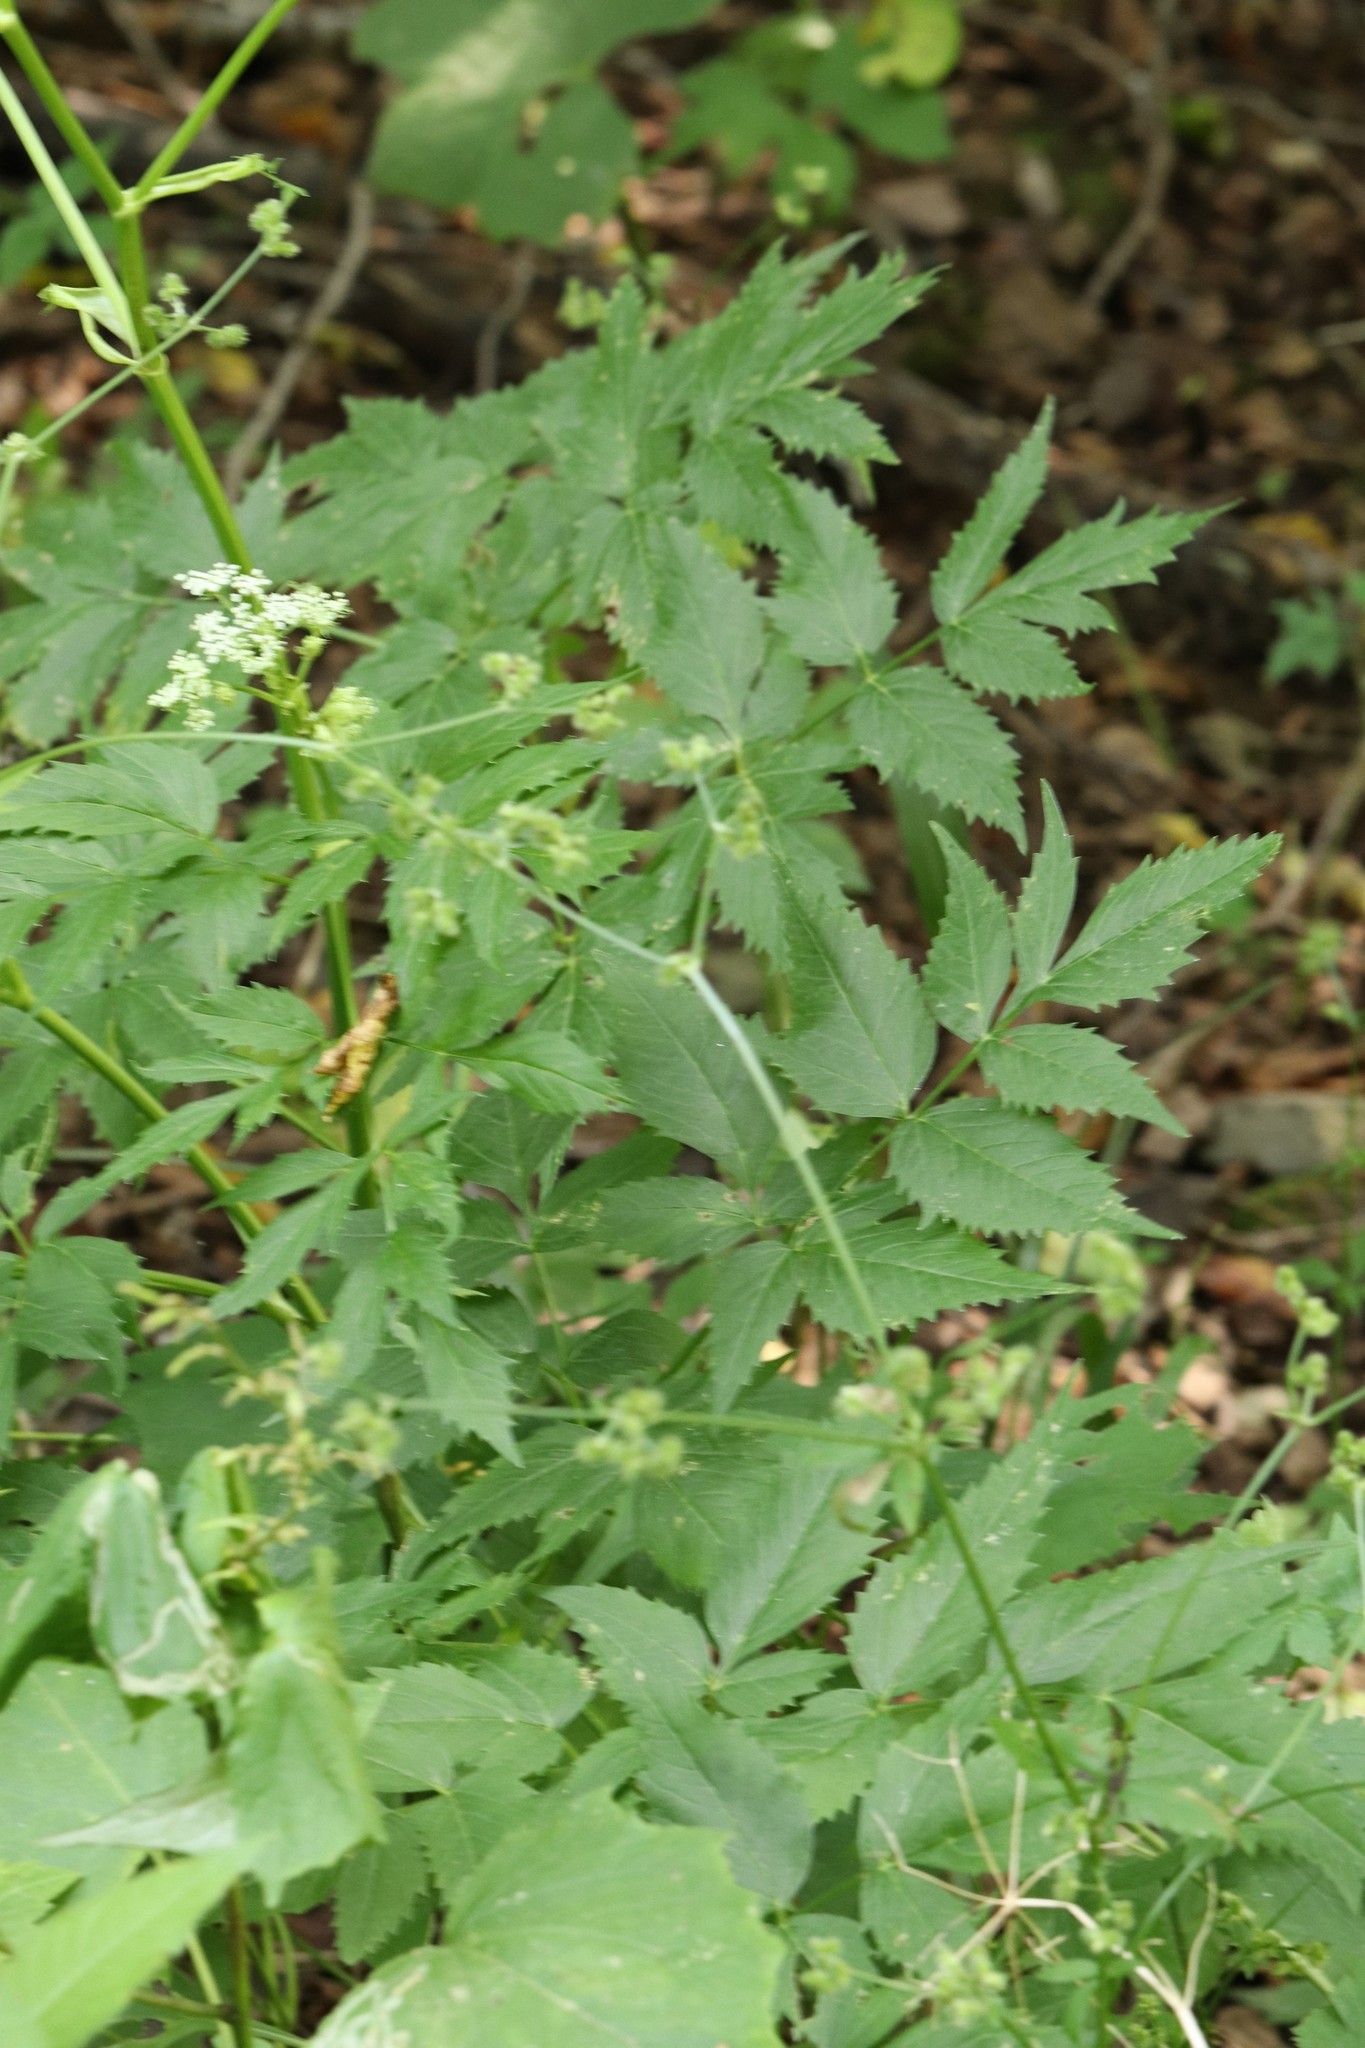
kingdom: Plantae
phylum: Tracheophyta
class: Magnoliopsida
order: Apiales
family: Apiaceae
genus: Ostericum
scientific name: Ostericum sieboldii
